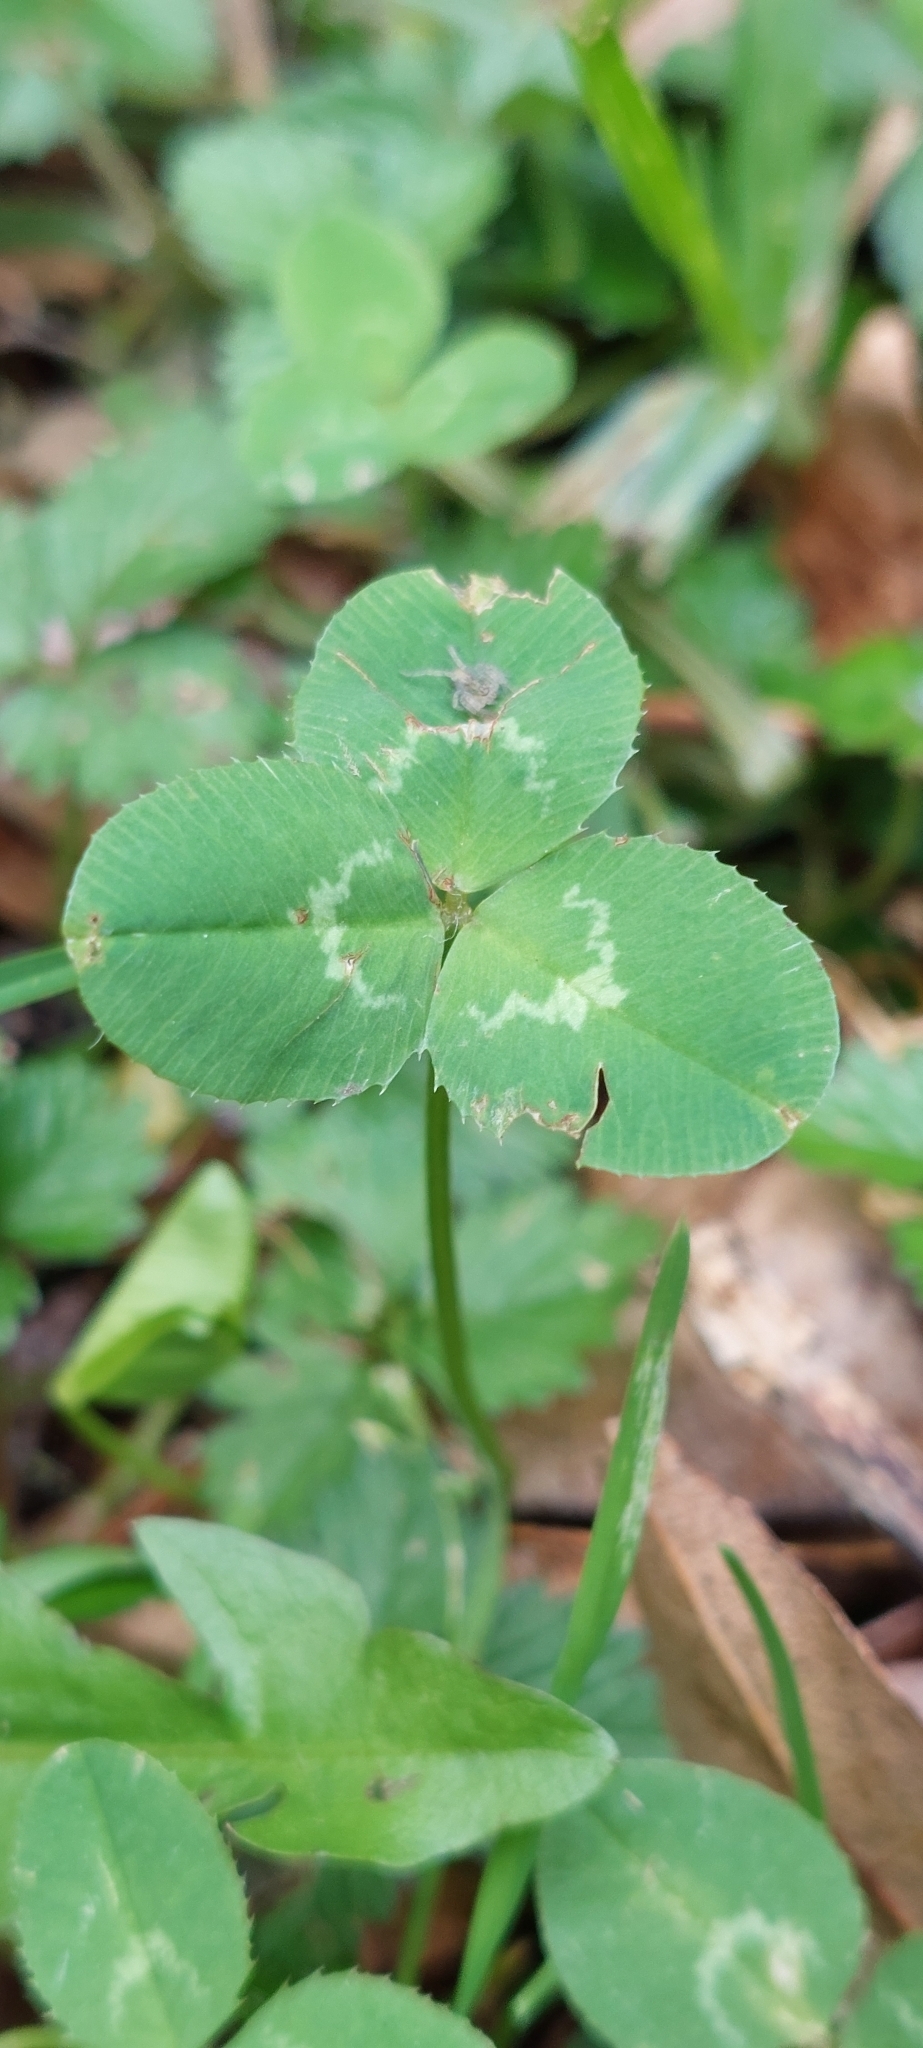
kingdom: Plantae
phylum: Tracheophyta
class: Magnoliopsida
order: Fabales
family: Fabaceae
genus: Trifolium
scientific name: Trifolium repens
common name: White clover
